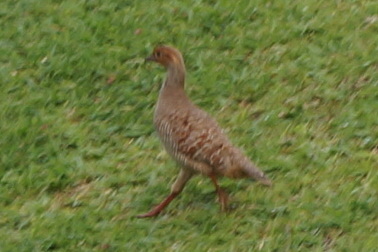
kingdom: Animalia
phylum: Chordata
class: Aves
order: Galliformes
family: Phasianidae
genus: Ortygornis
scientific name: Ortygornis pondicerianus
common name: Grey francolin
